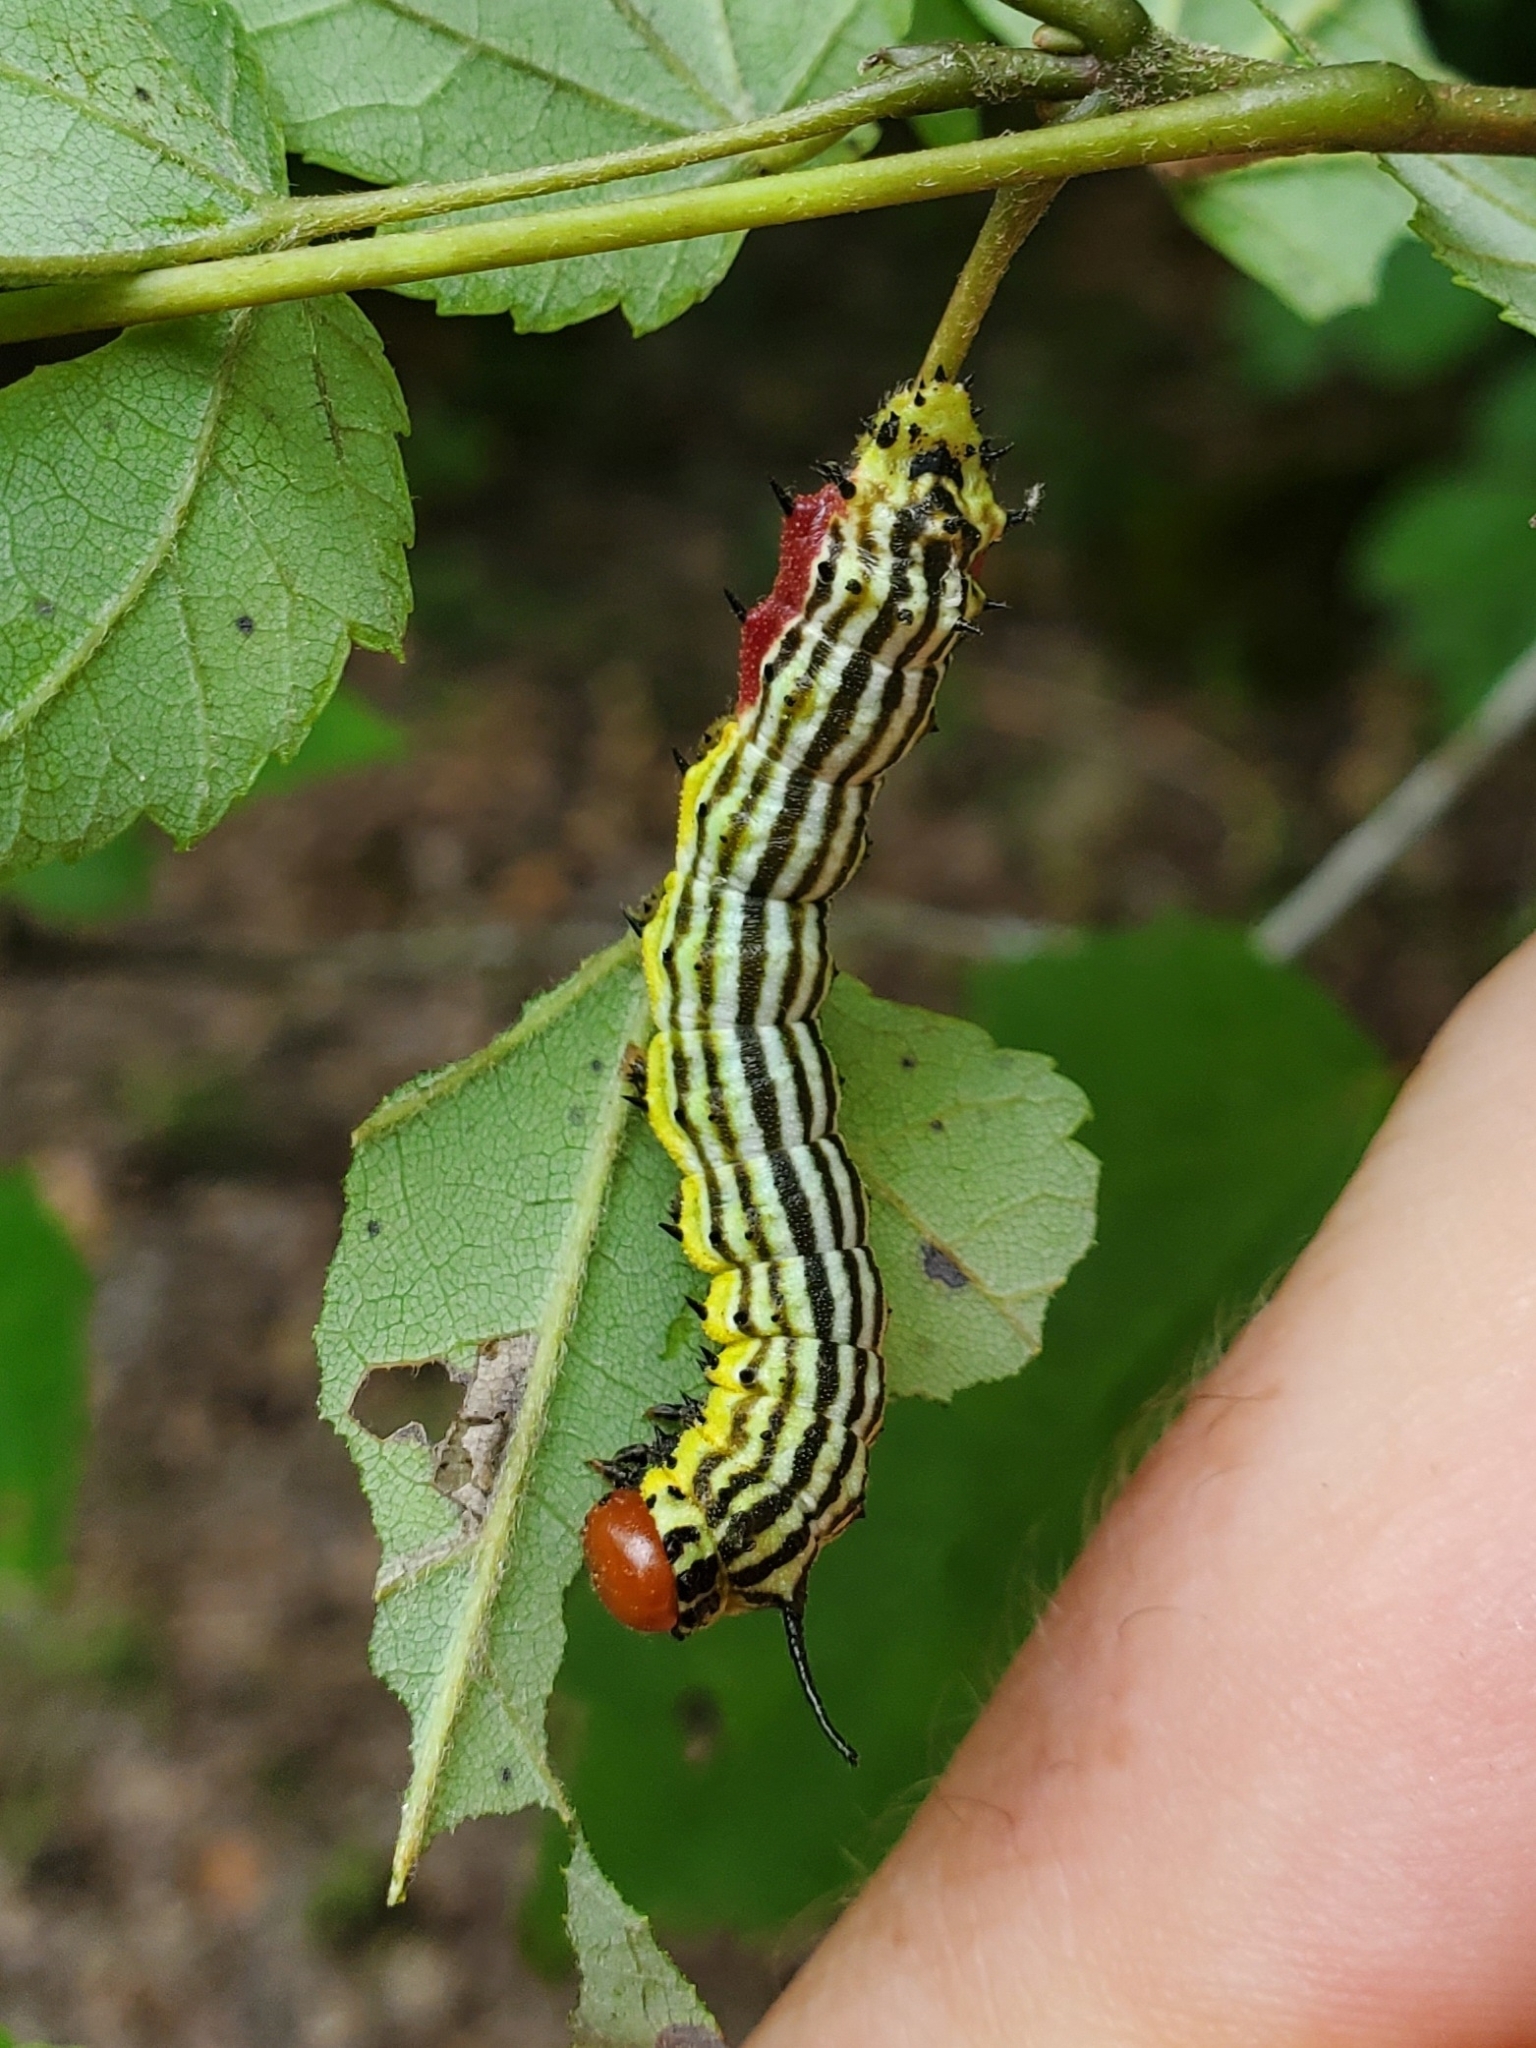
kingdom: Animalia
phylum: Arthropoda
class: Insecta
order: Lepidoptera
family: Saturniidae
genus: Dryocampa
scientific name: Dryocampa rubicunda
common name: Rosy maple moth
